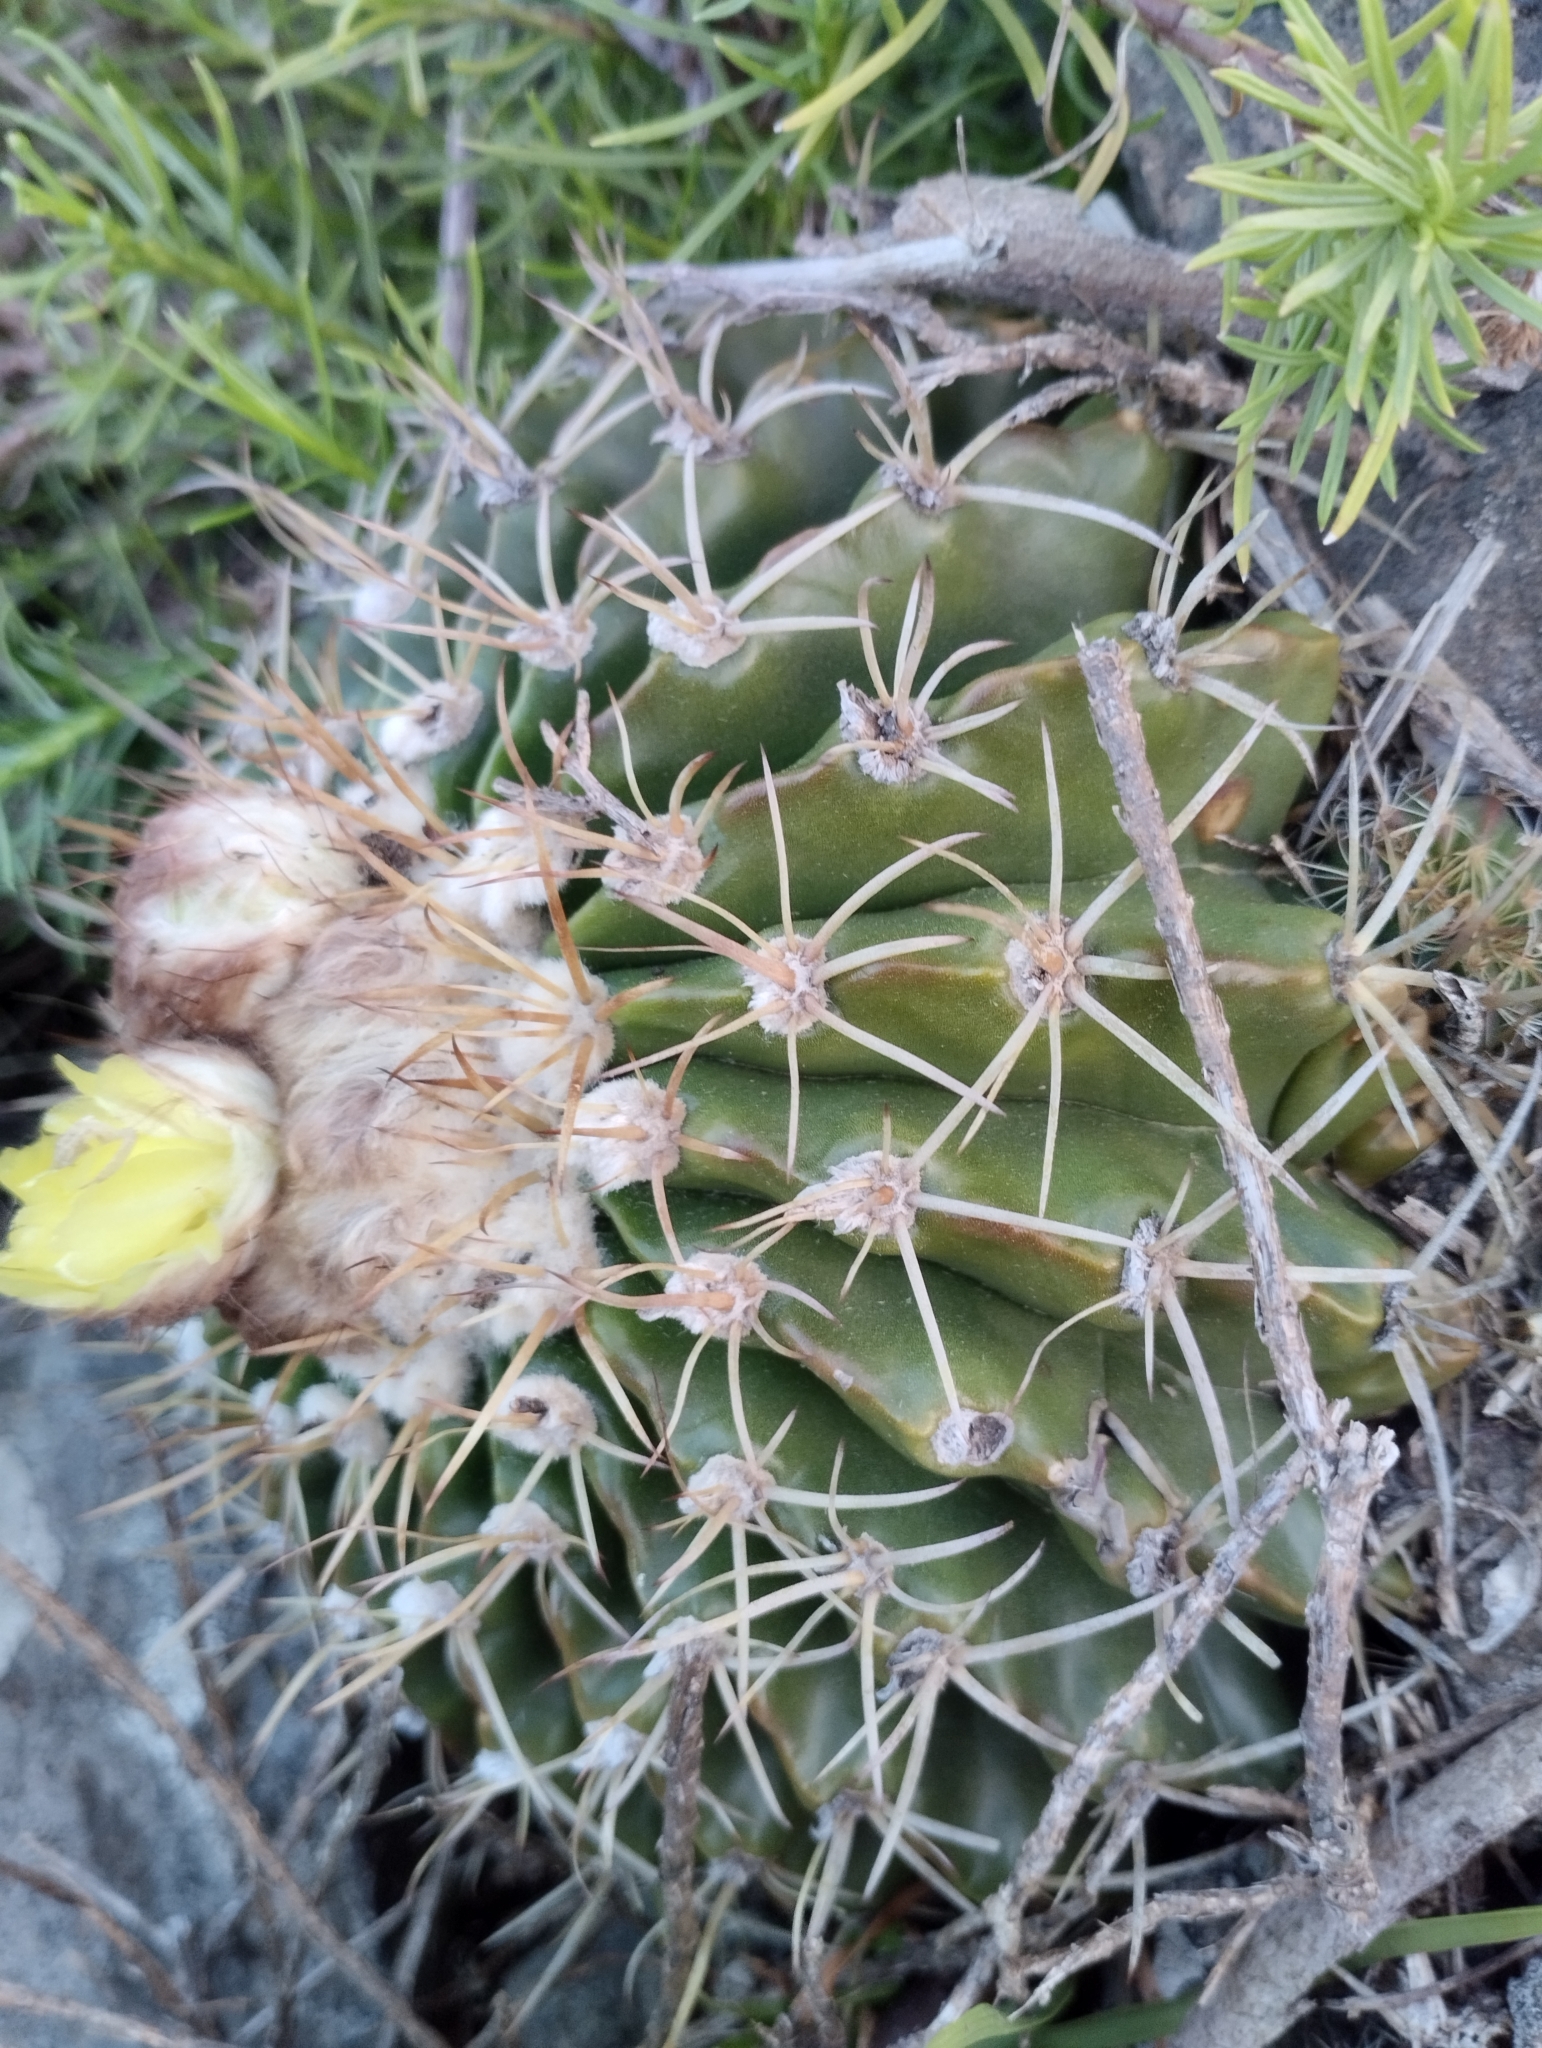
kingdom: Plantae
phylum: Tracheophyta
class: Magnoliopsida
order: Caryophyllales
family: Cactaceae
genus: Parodia
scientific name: Parodia erinacea
